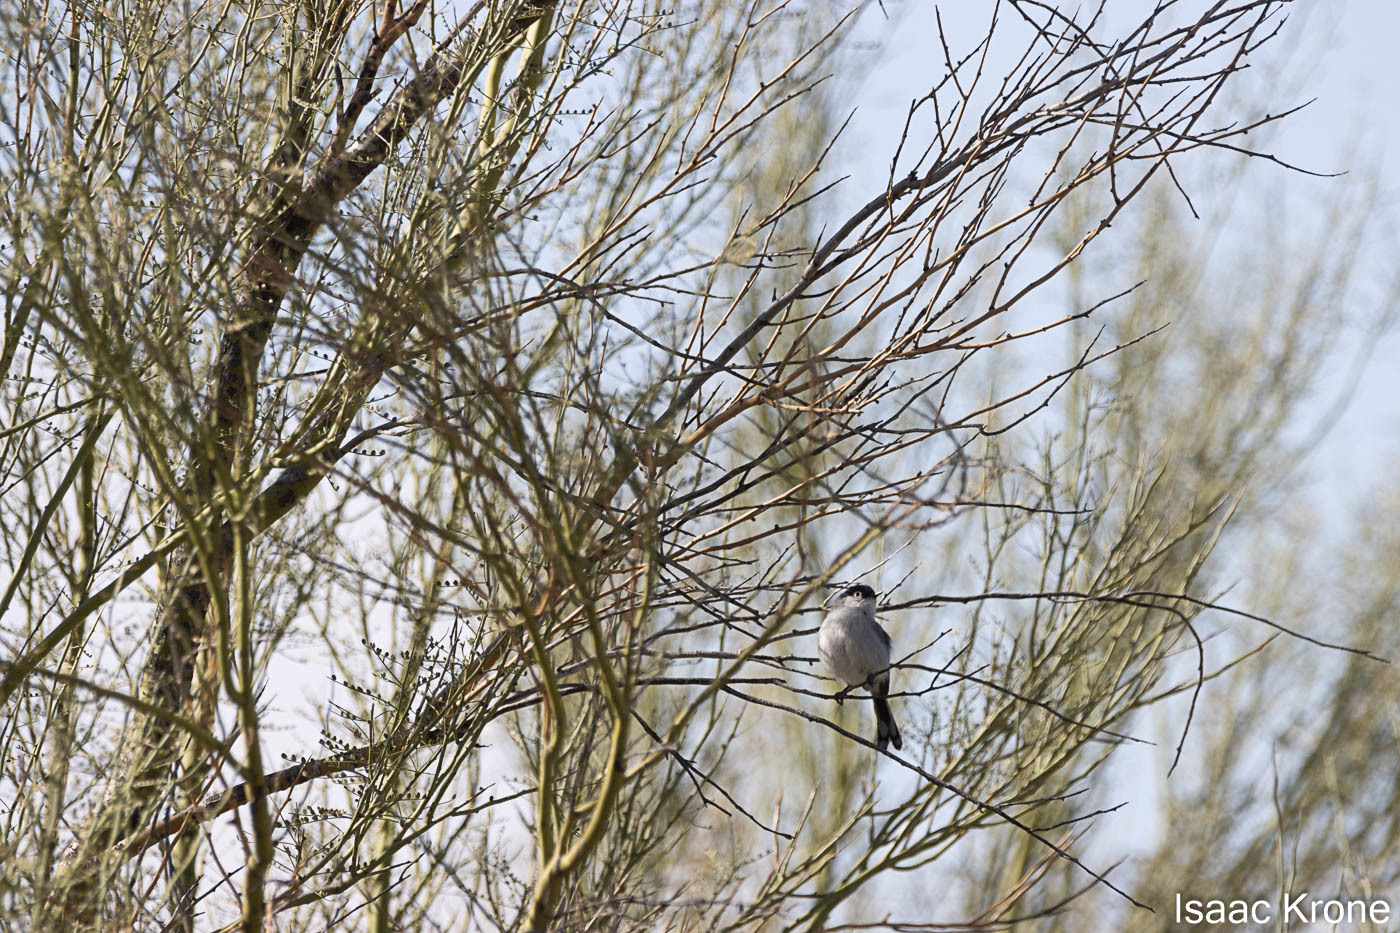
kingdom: Animalia
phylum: Chordata
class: Aves
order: Passeriformes
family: Polioptilidae
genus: Polioptila
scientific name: Polioptila melanura
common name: Black-tailed gnatcatcher
